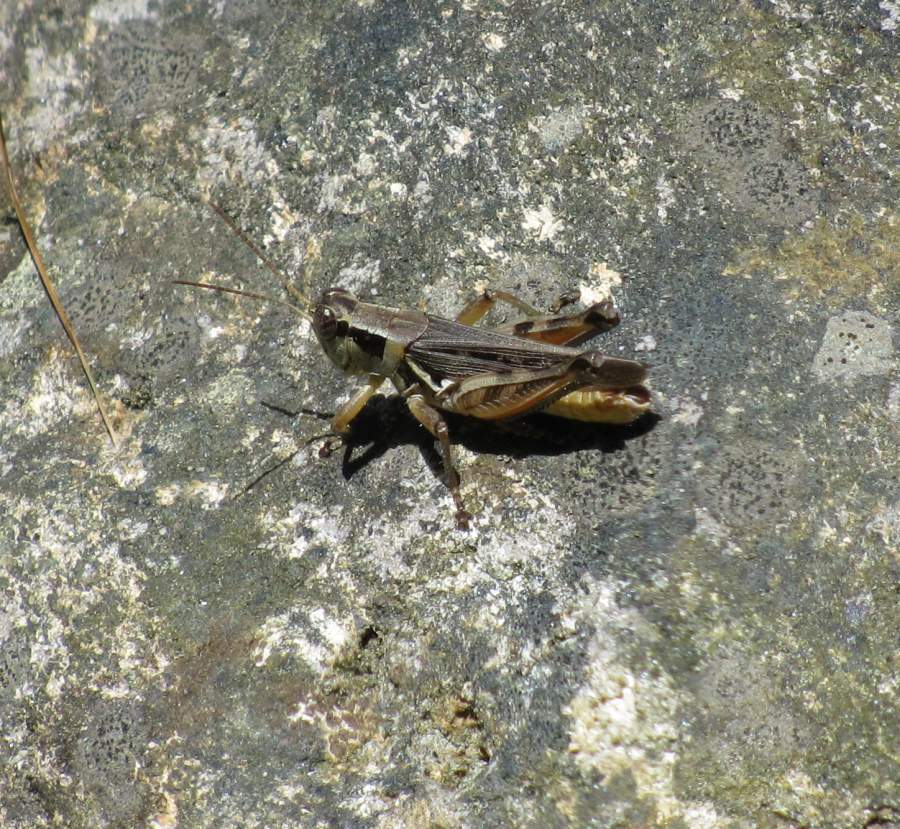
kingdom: Animalia
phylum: Arthropoda
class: Insecta
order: Orthoptera
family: Acrididae
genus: Melanoplus
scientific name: Melanoplus confusus
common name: Little pasture locust
